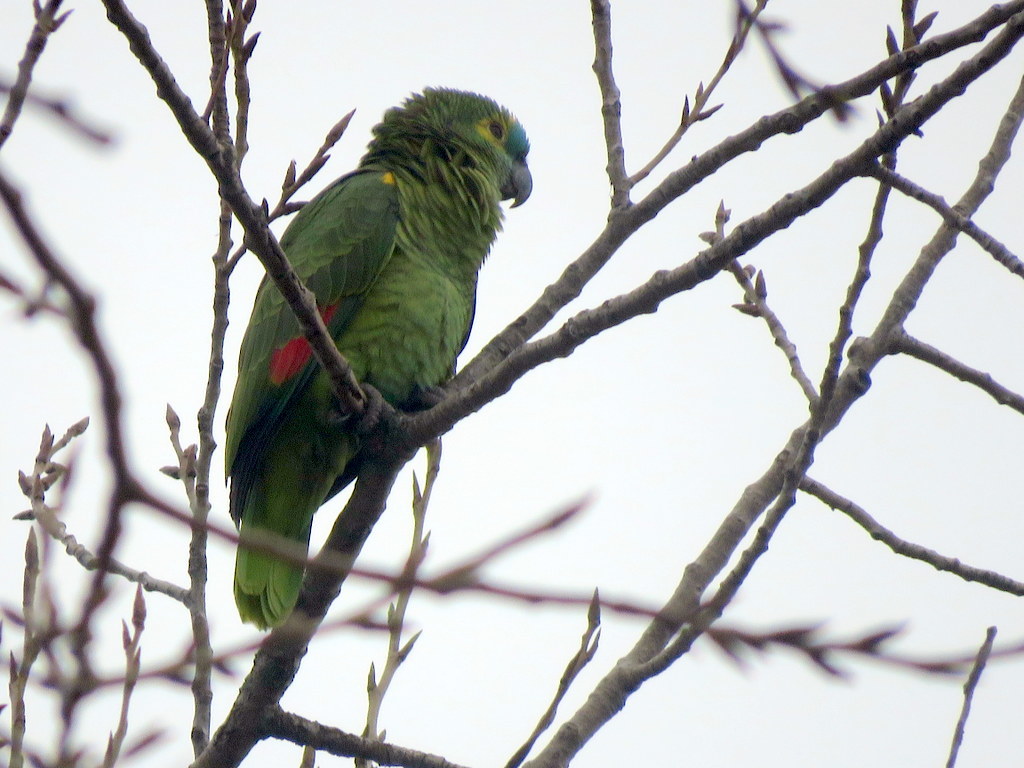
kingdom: Animalia
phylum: Chordata
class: Aves
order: Psittaciformes
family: Psittacidae
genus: Amazona
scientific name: Amazona aestiva
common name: Turquoise-fronted amazon
